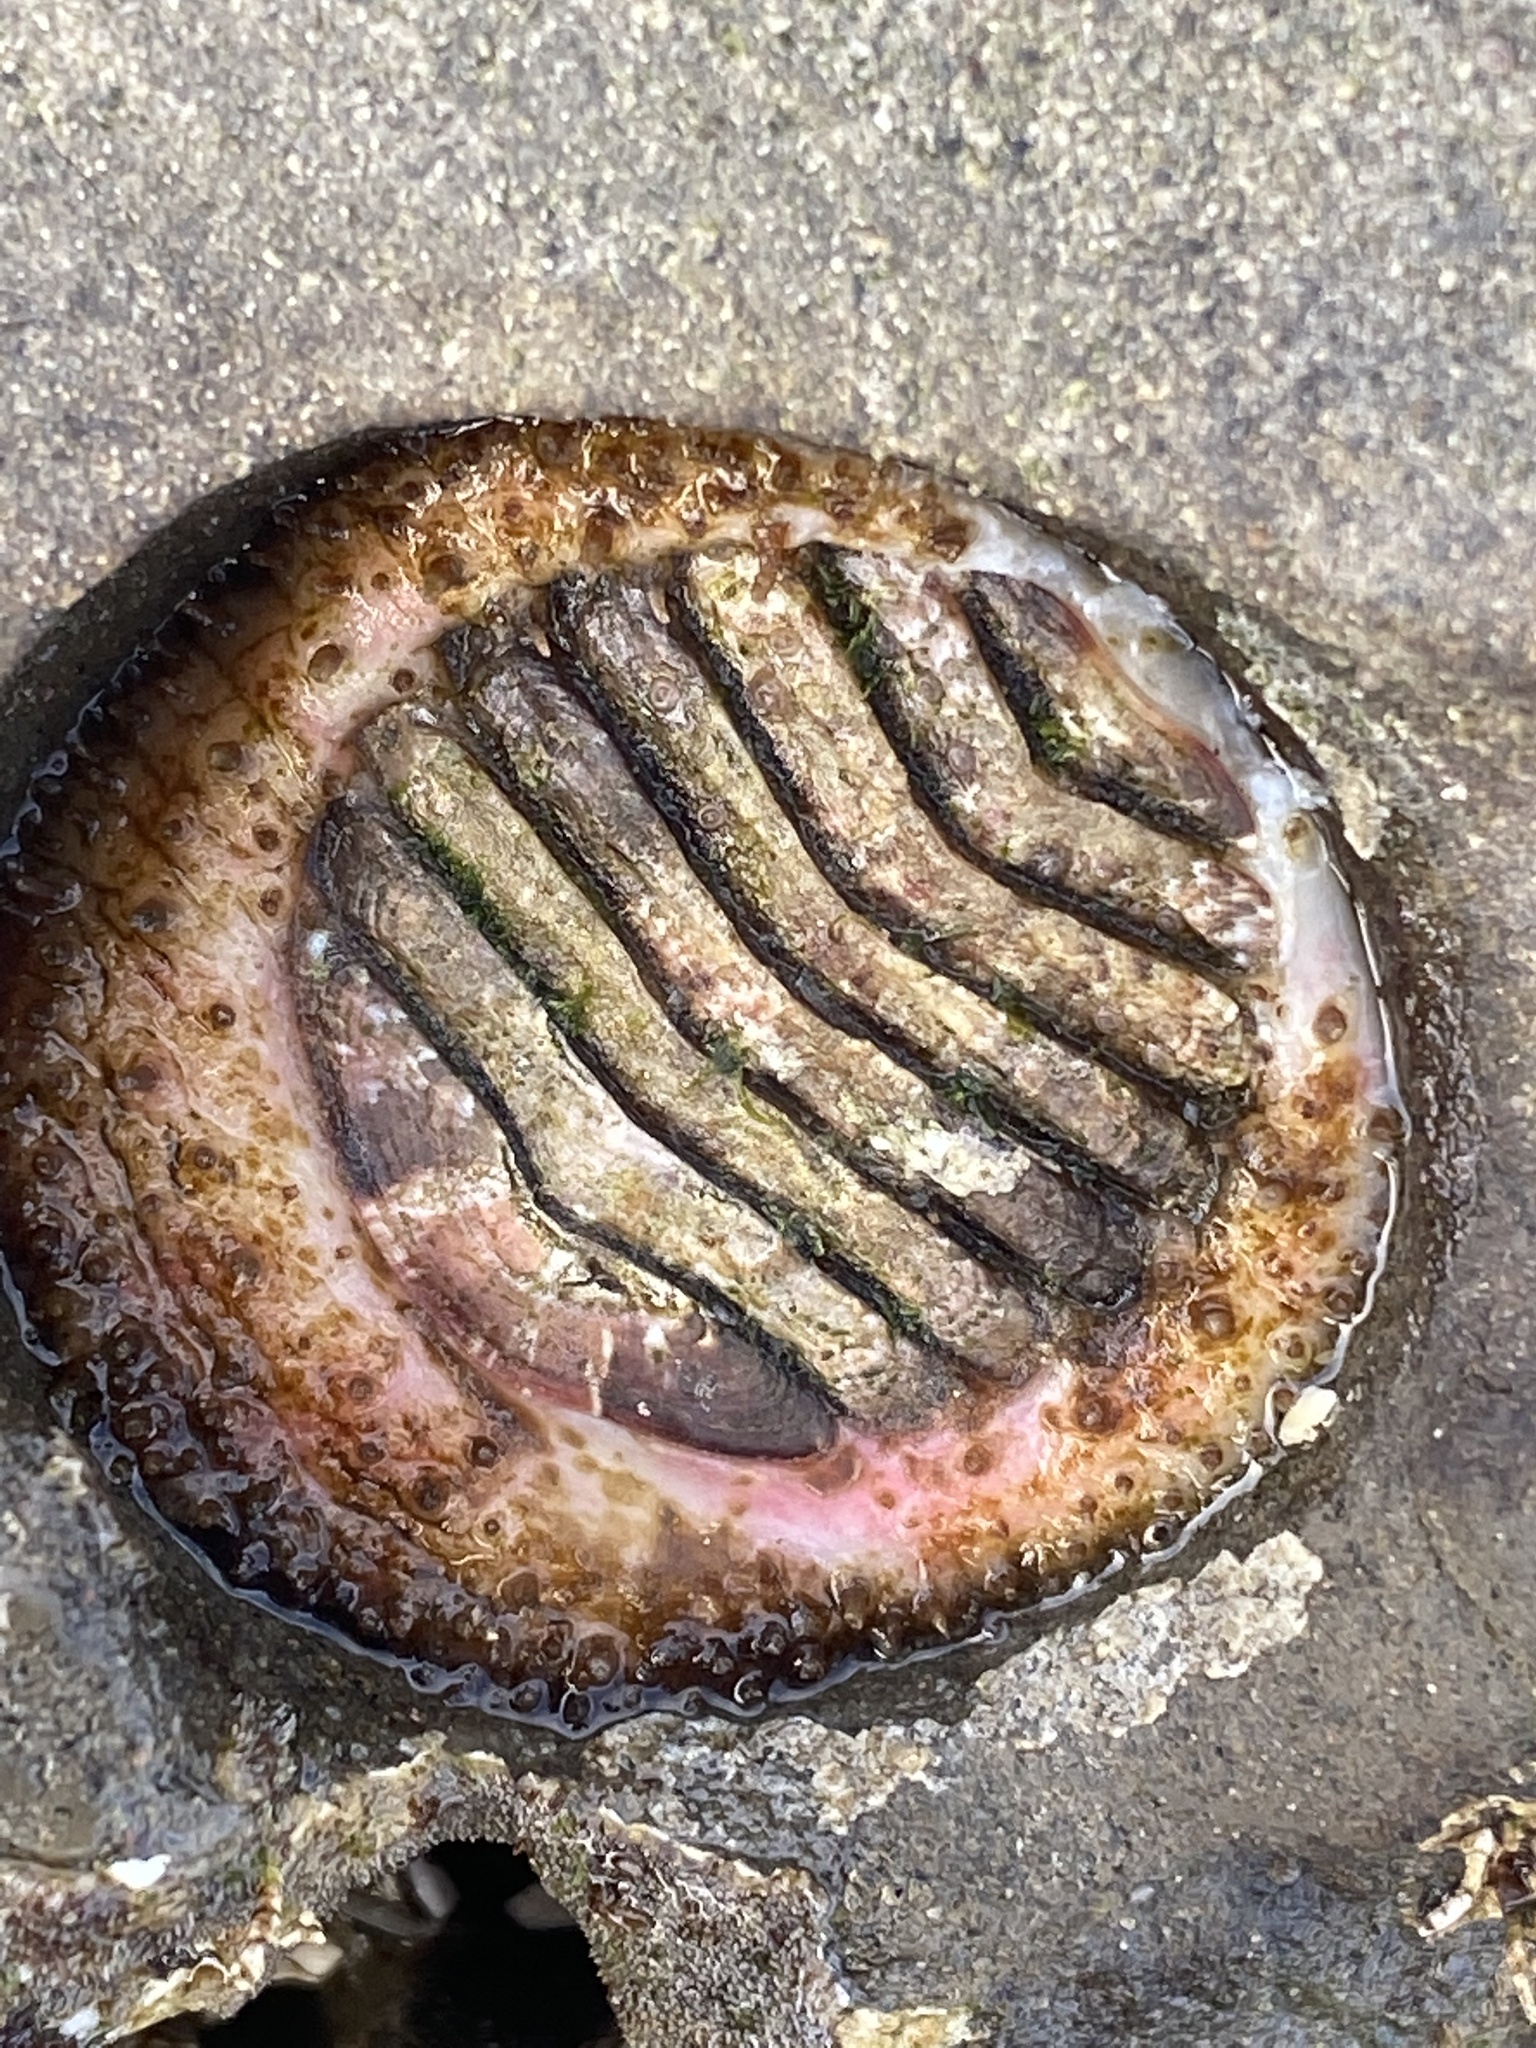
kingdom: Animalia
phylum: Mollusca
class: Polyplacophora
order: Chitonida
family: Mopaliidae
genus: Placiphorella
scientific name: Placiphorella velata
